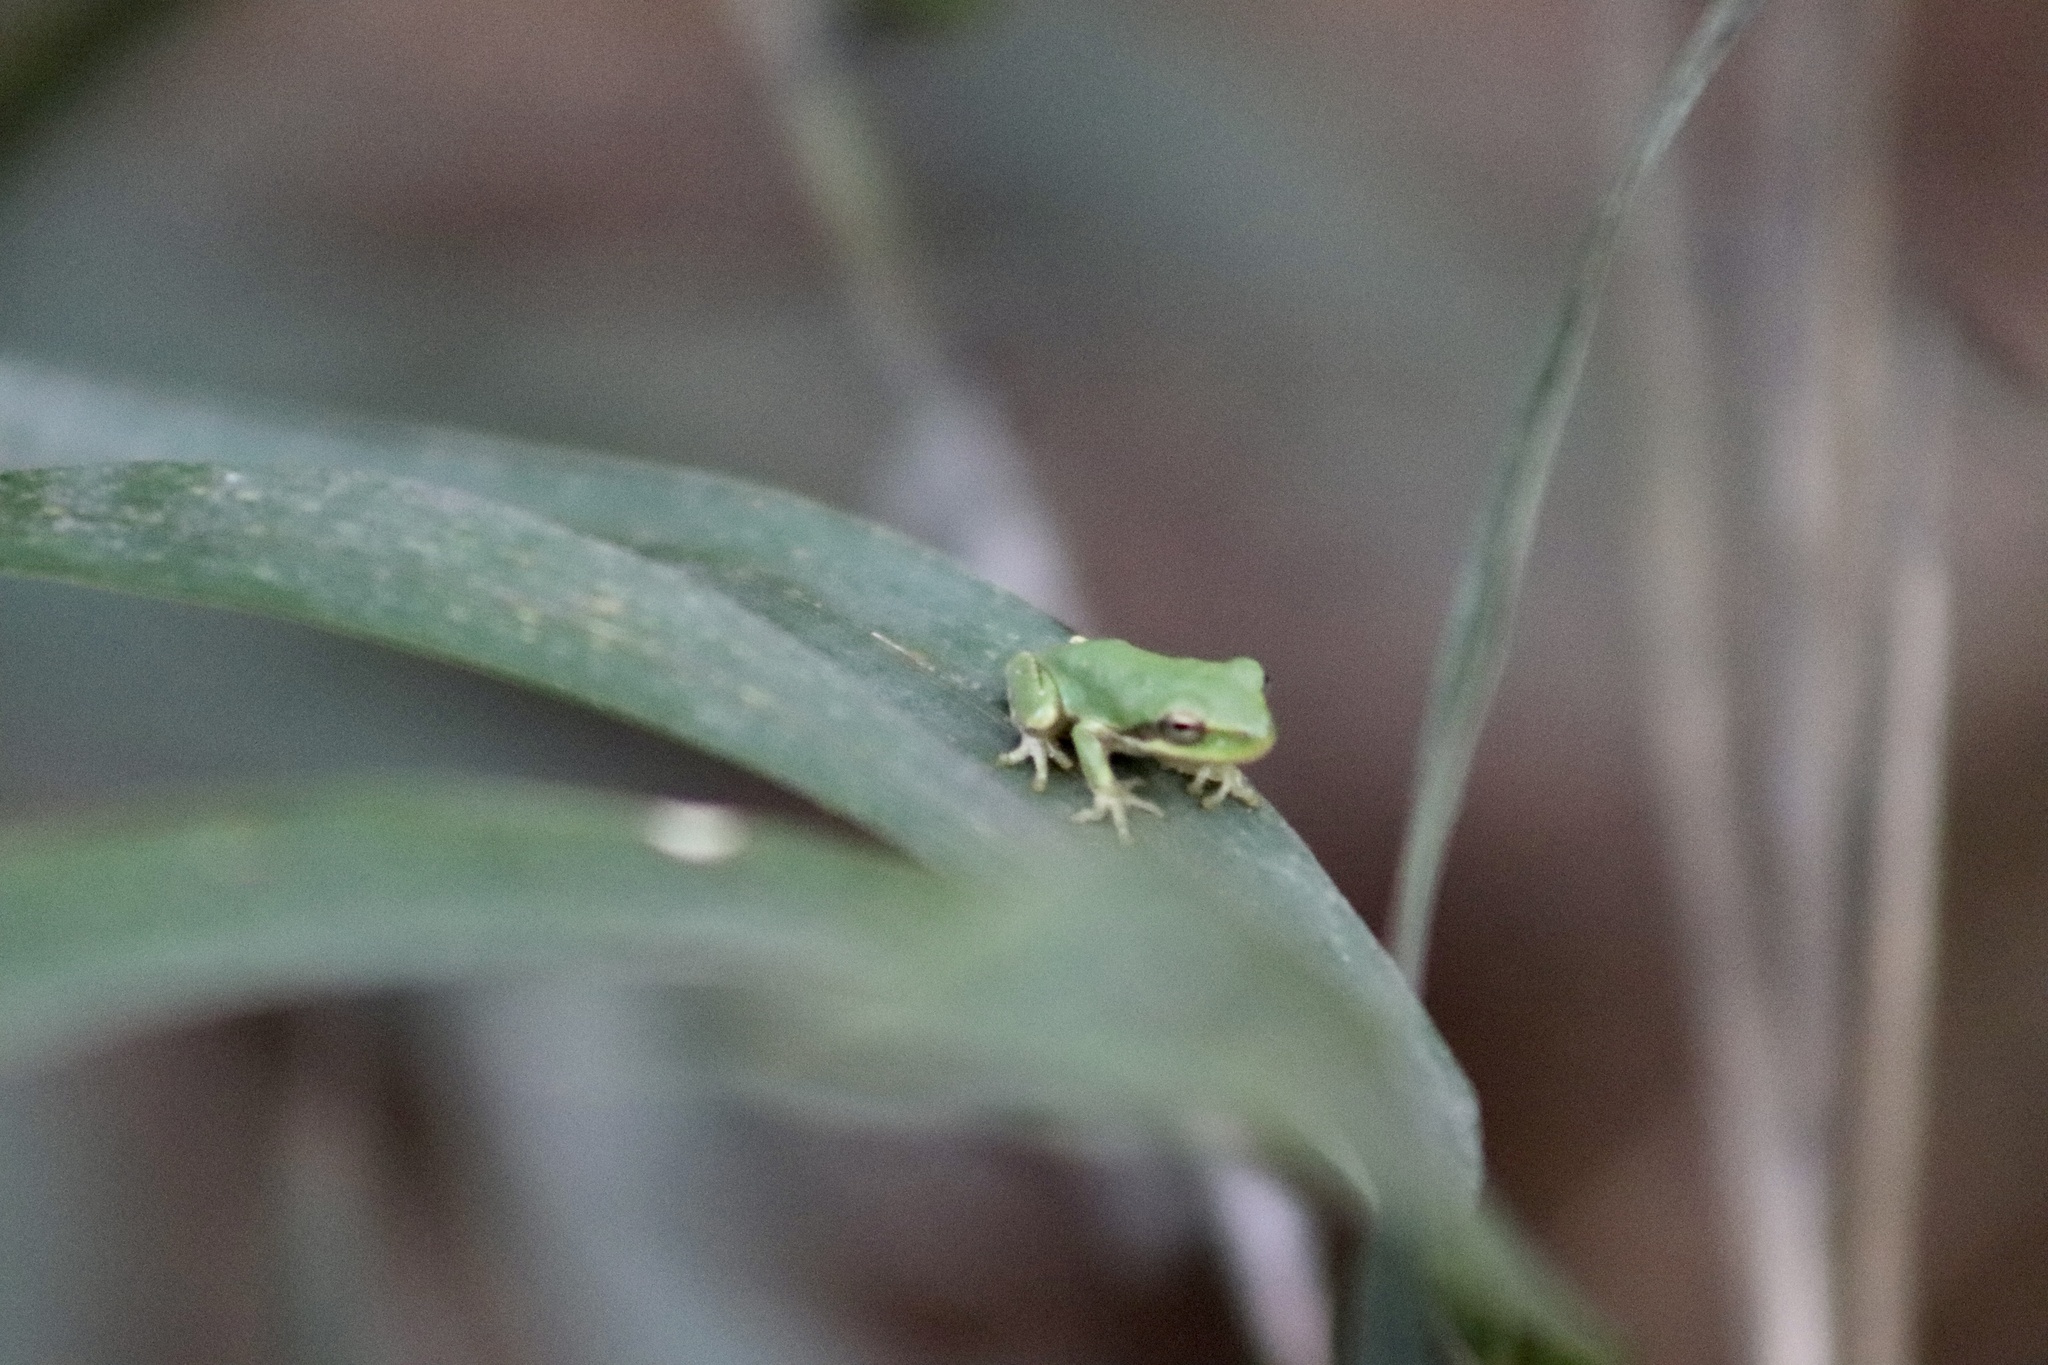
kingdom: Animalia
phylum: Chordata
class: Amphibia
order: Anura
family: Hylidae
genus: Dryophytes
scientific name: Dryophytes squirellus
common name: Squirrel treefrog
